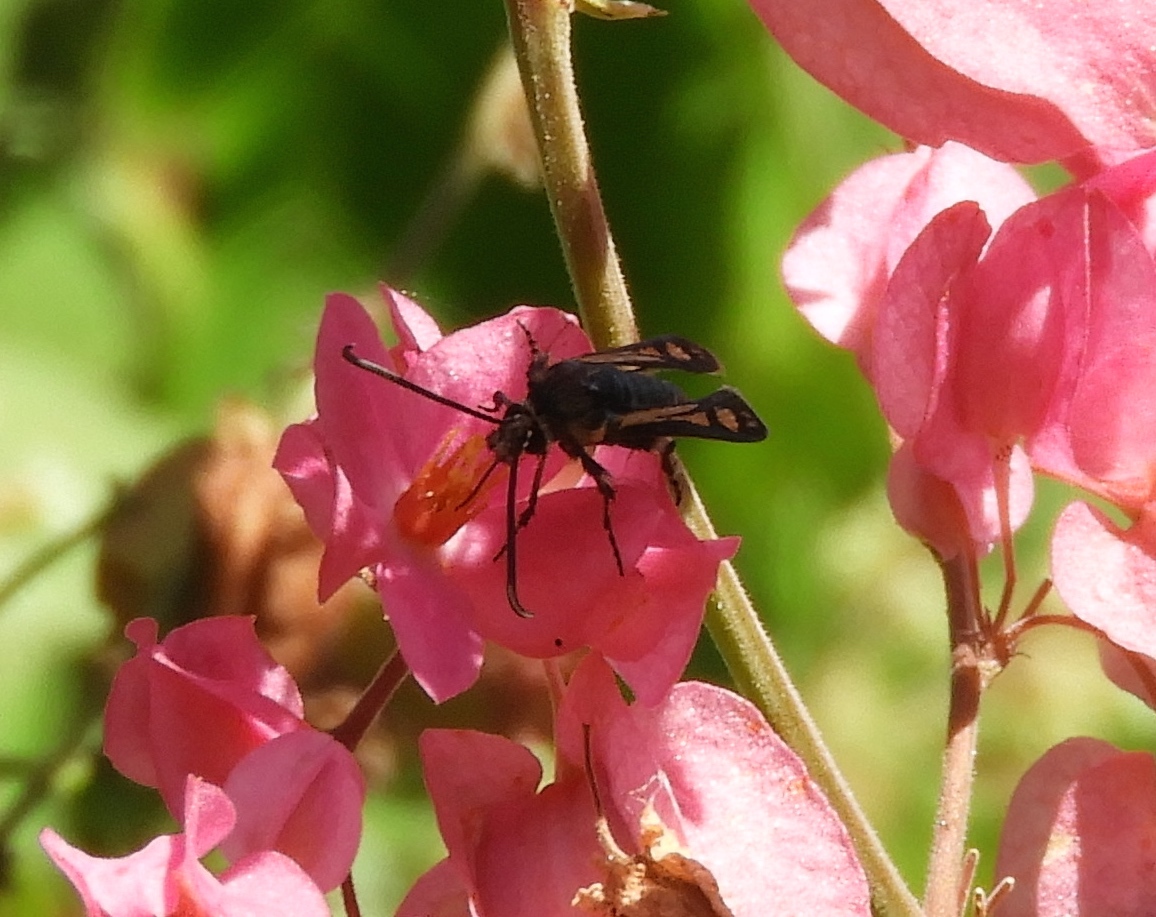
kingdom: Animalia
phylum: Arthropoda
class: Insecta
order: Lepidoptera
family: Sesiidae
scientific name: Sesiidae
